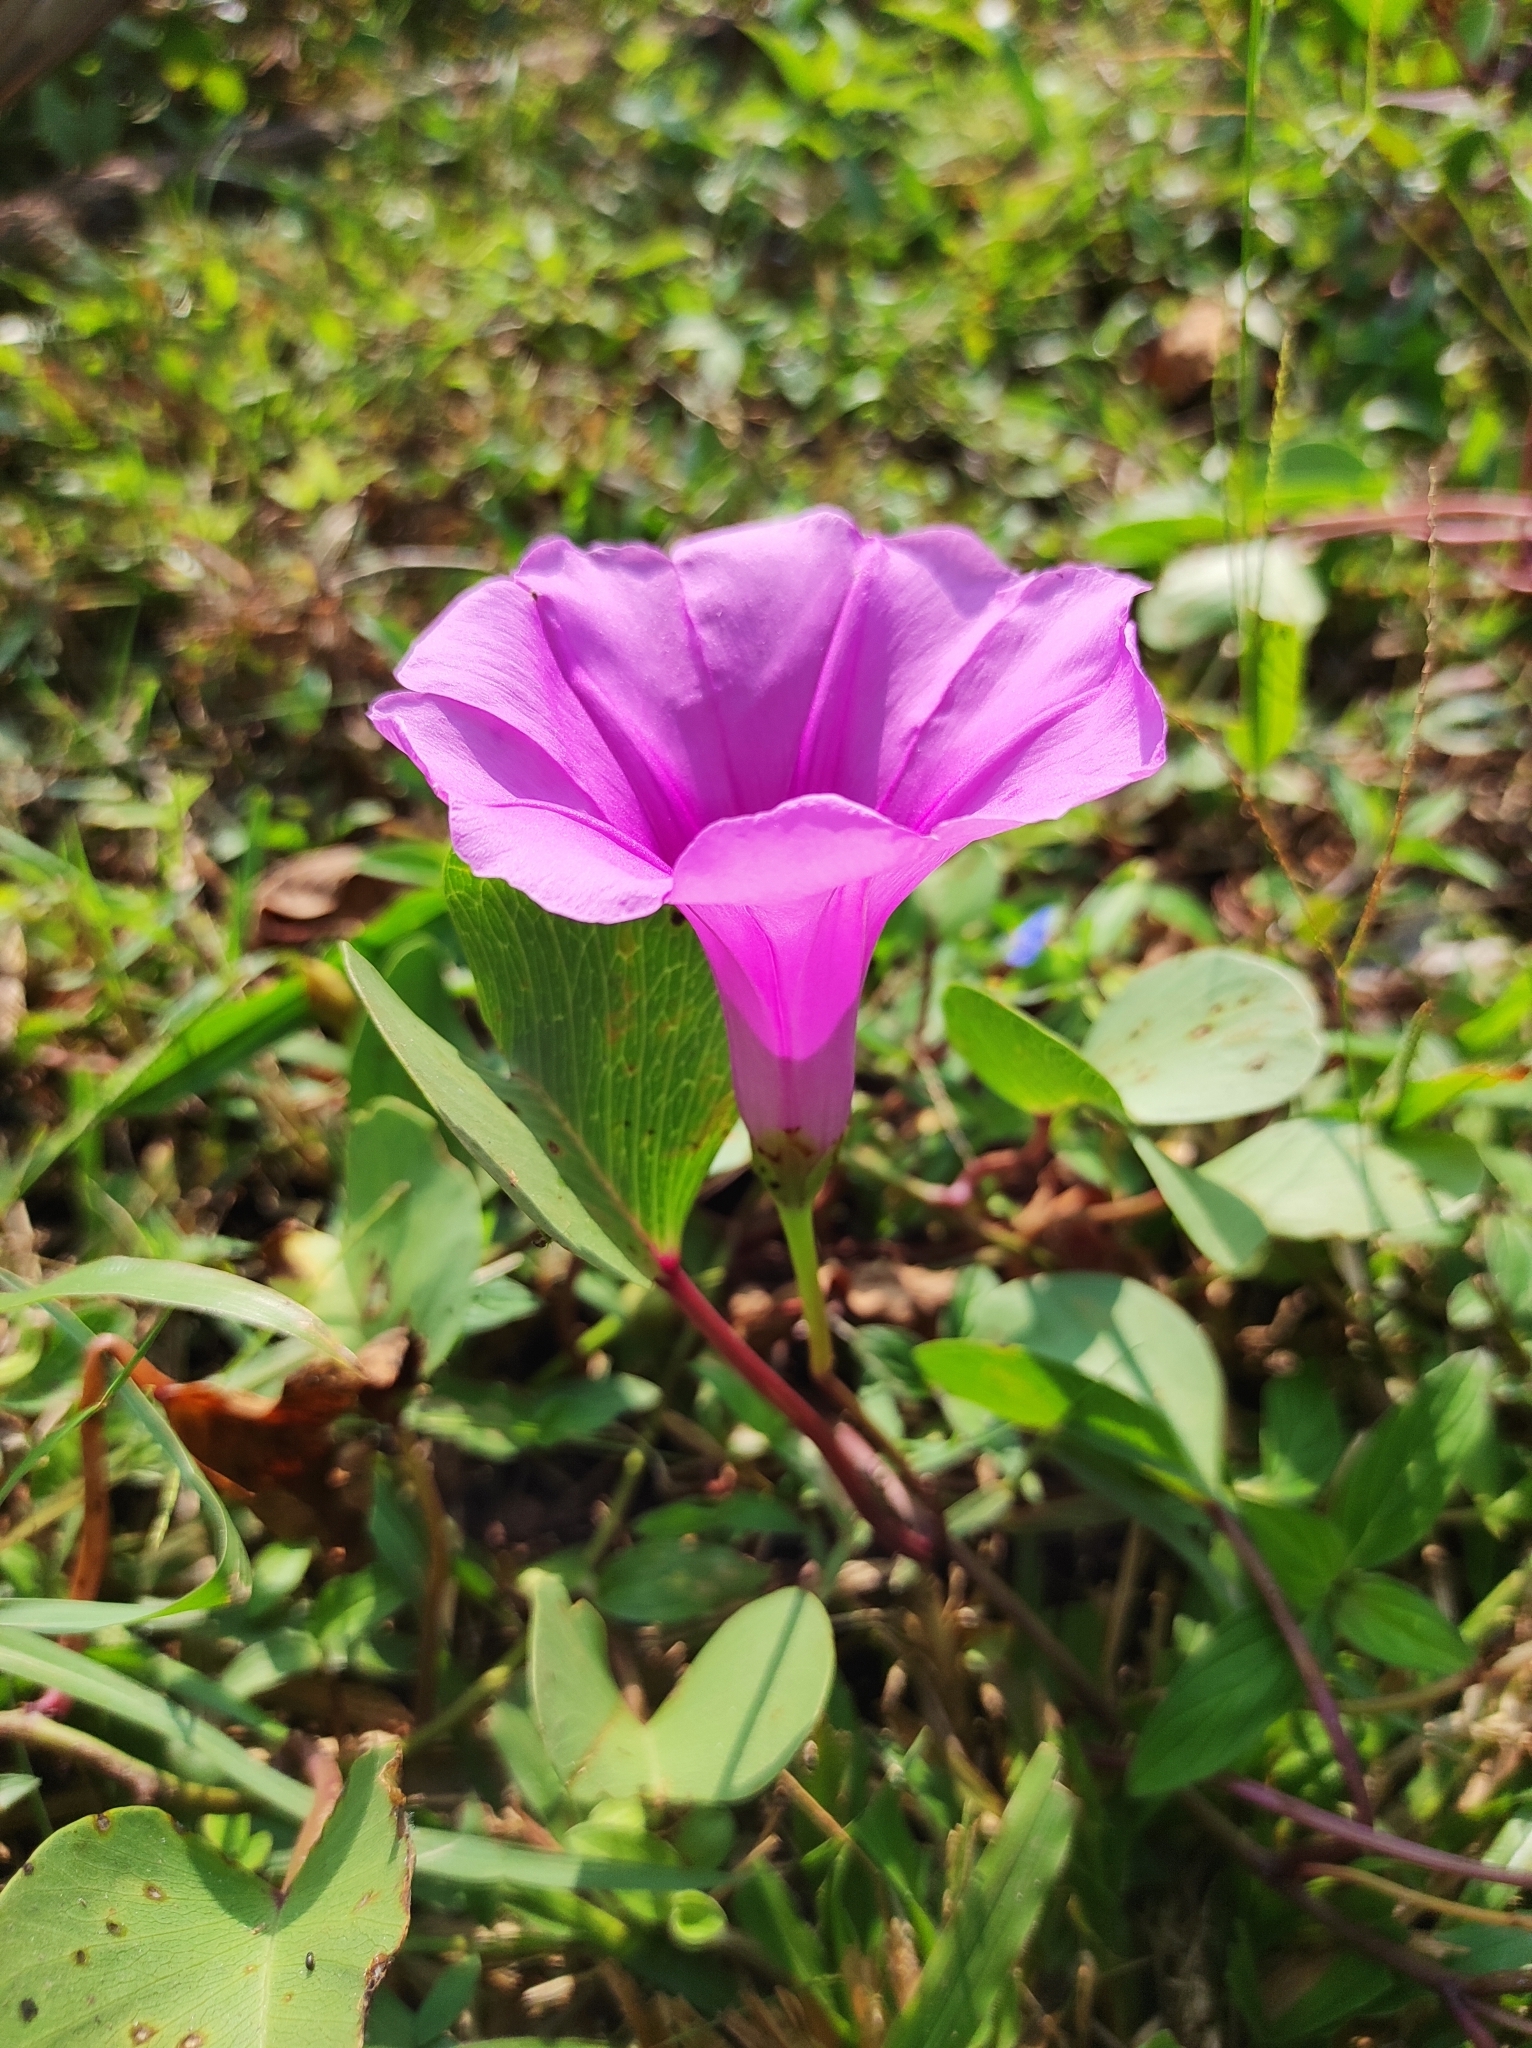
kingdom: Plantae
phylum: Tracheophyta
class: Magnoliopsida
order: Solanales
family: Convolvulaceae
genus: Ipomoea
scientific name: Ipomoea pes-caprae
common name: Beach morning glory
